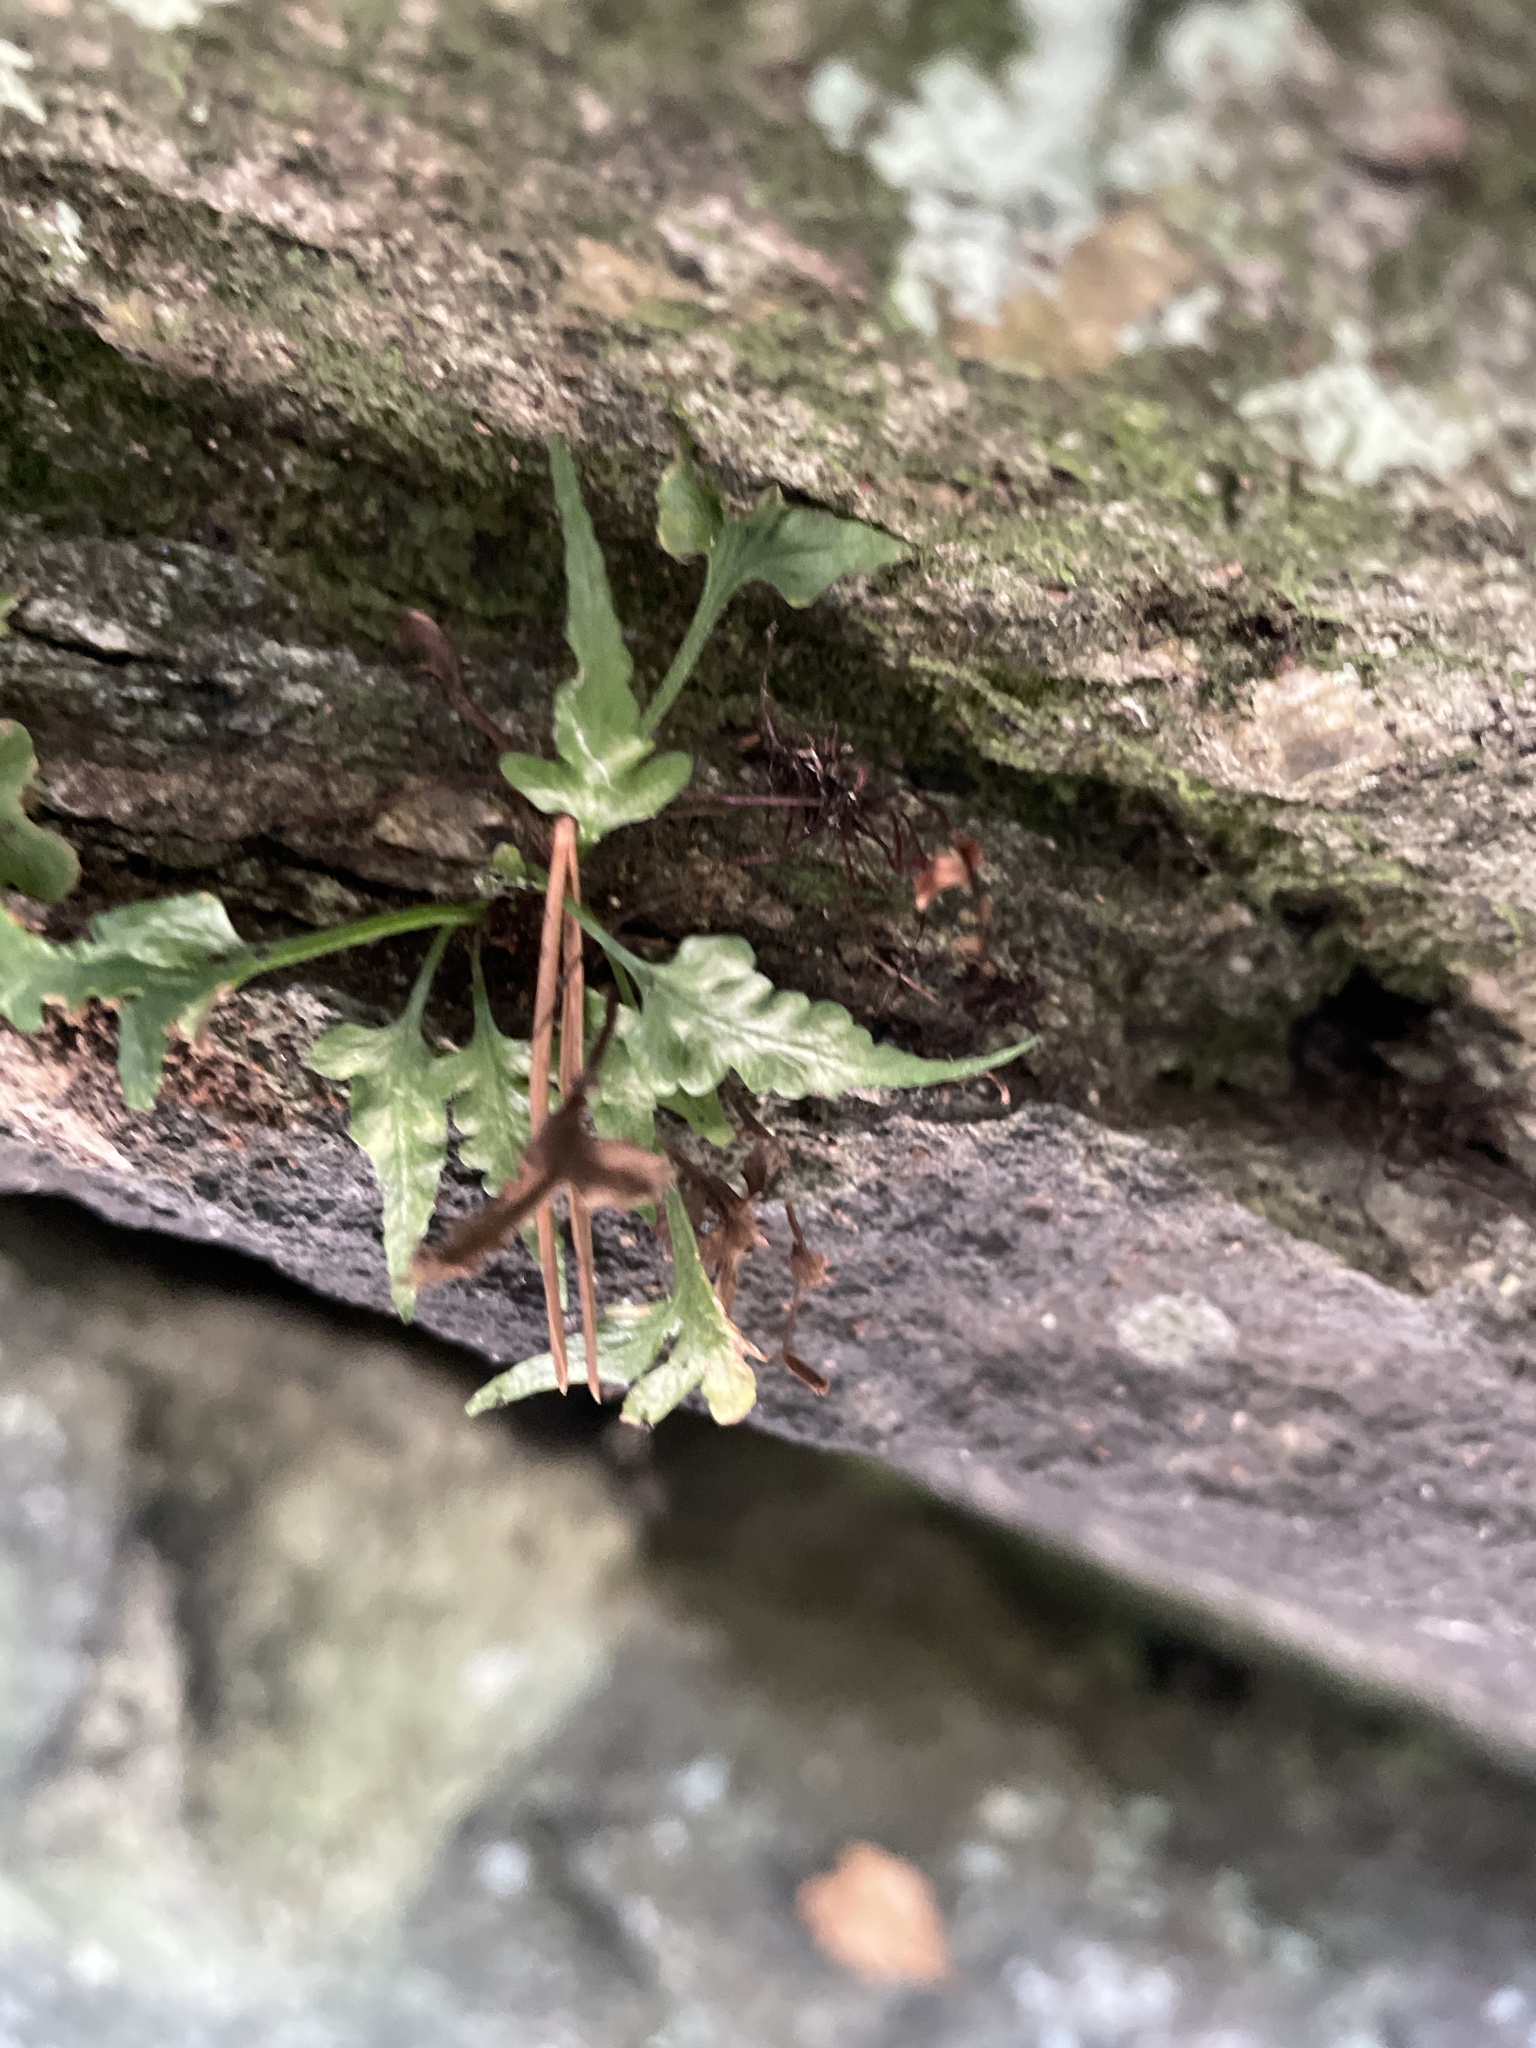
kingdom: Plantae
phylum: Tracheophyta
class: Polypodiopsida
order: Polypodiales
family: Aspleniaceae
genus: Asplenium
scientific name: Asplenium pinnatifidum
